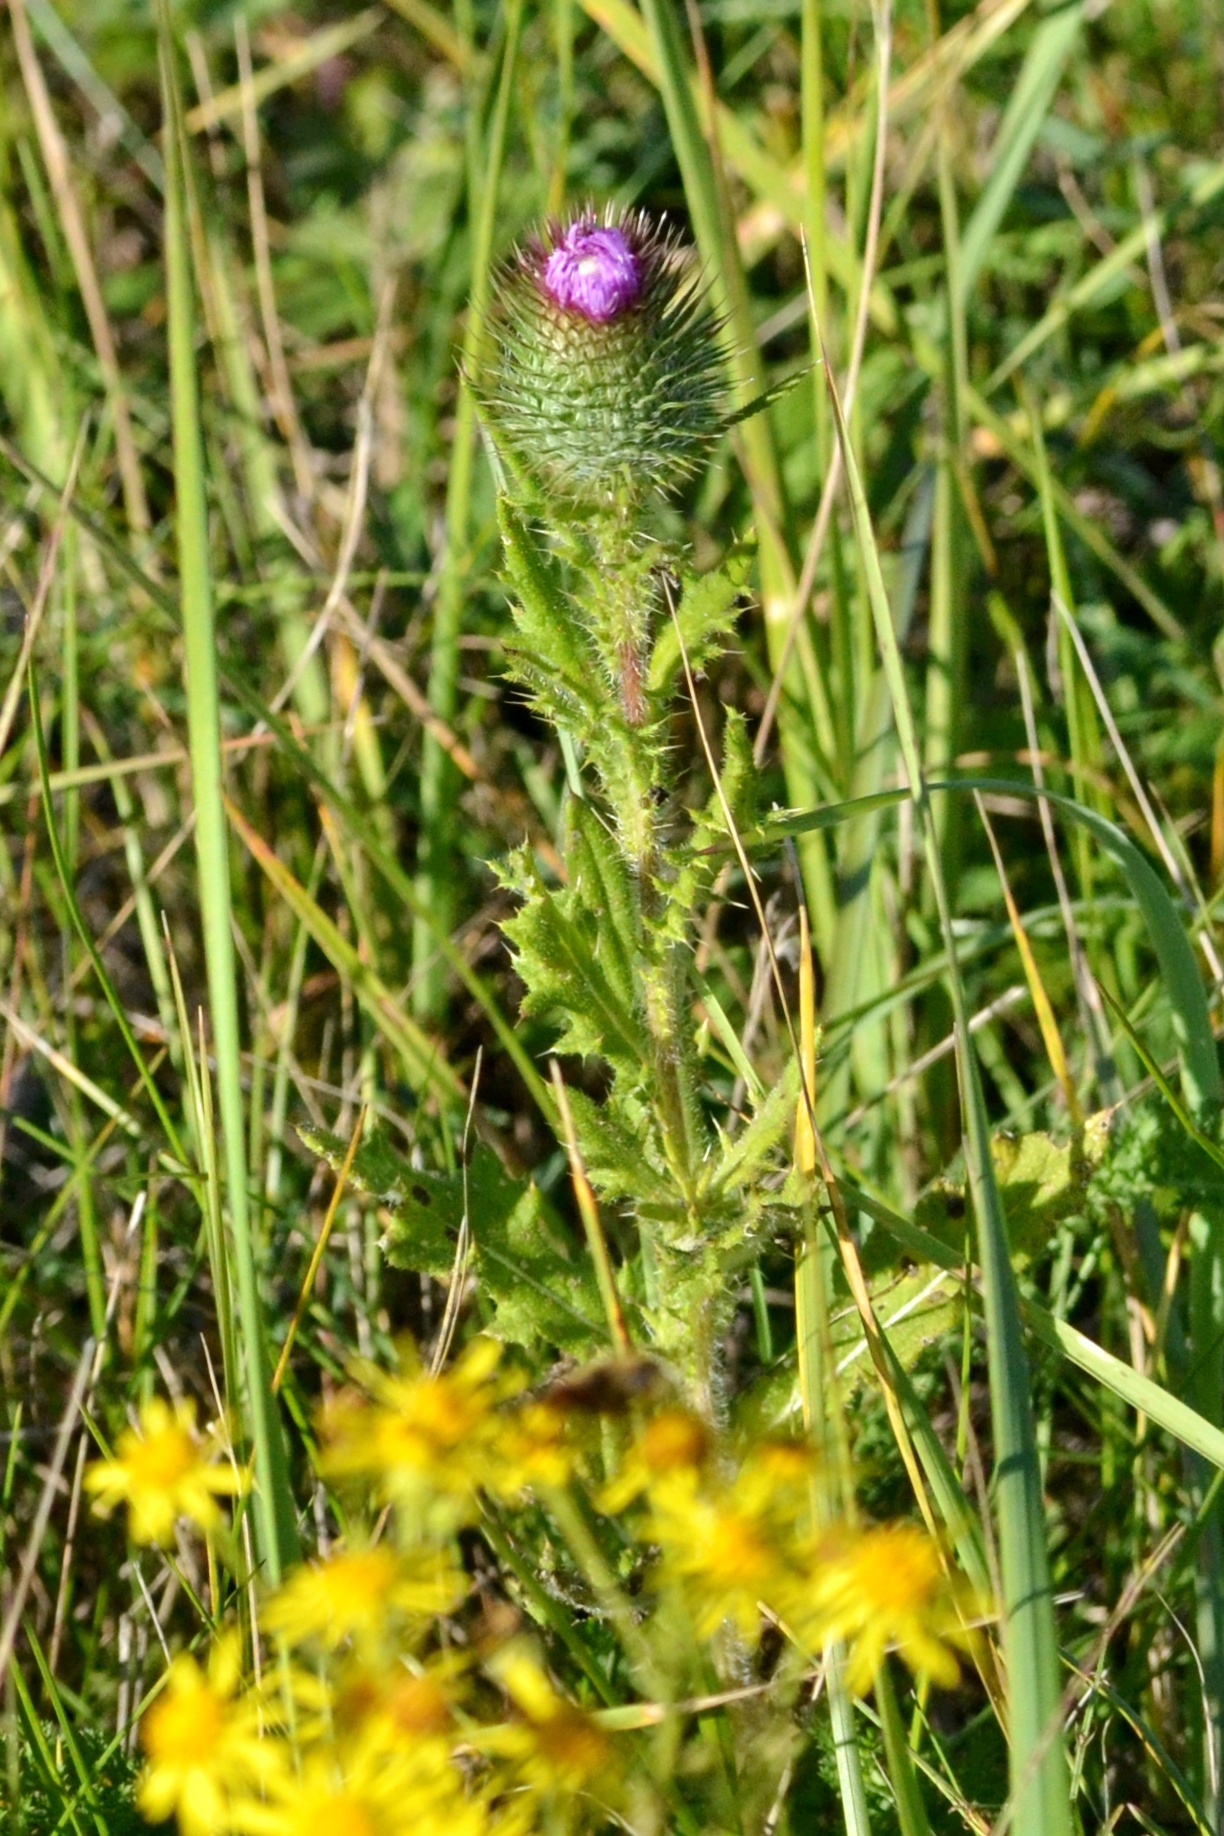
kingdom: Plantae
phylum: Tracheophyta
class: Magnoliopsida
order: Asterales
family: Asteraceae
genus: Cirsium
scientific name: Cirsium vulgare
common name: Bull thistle
